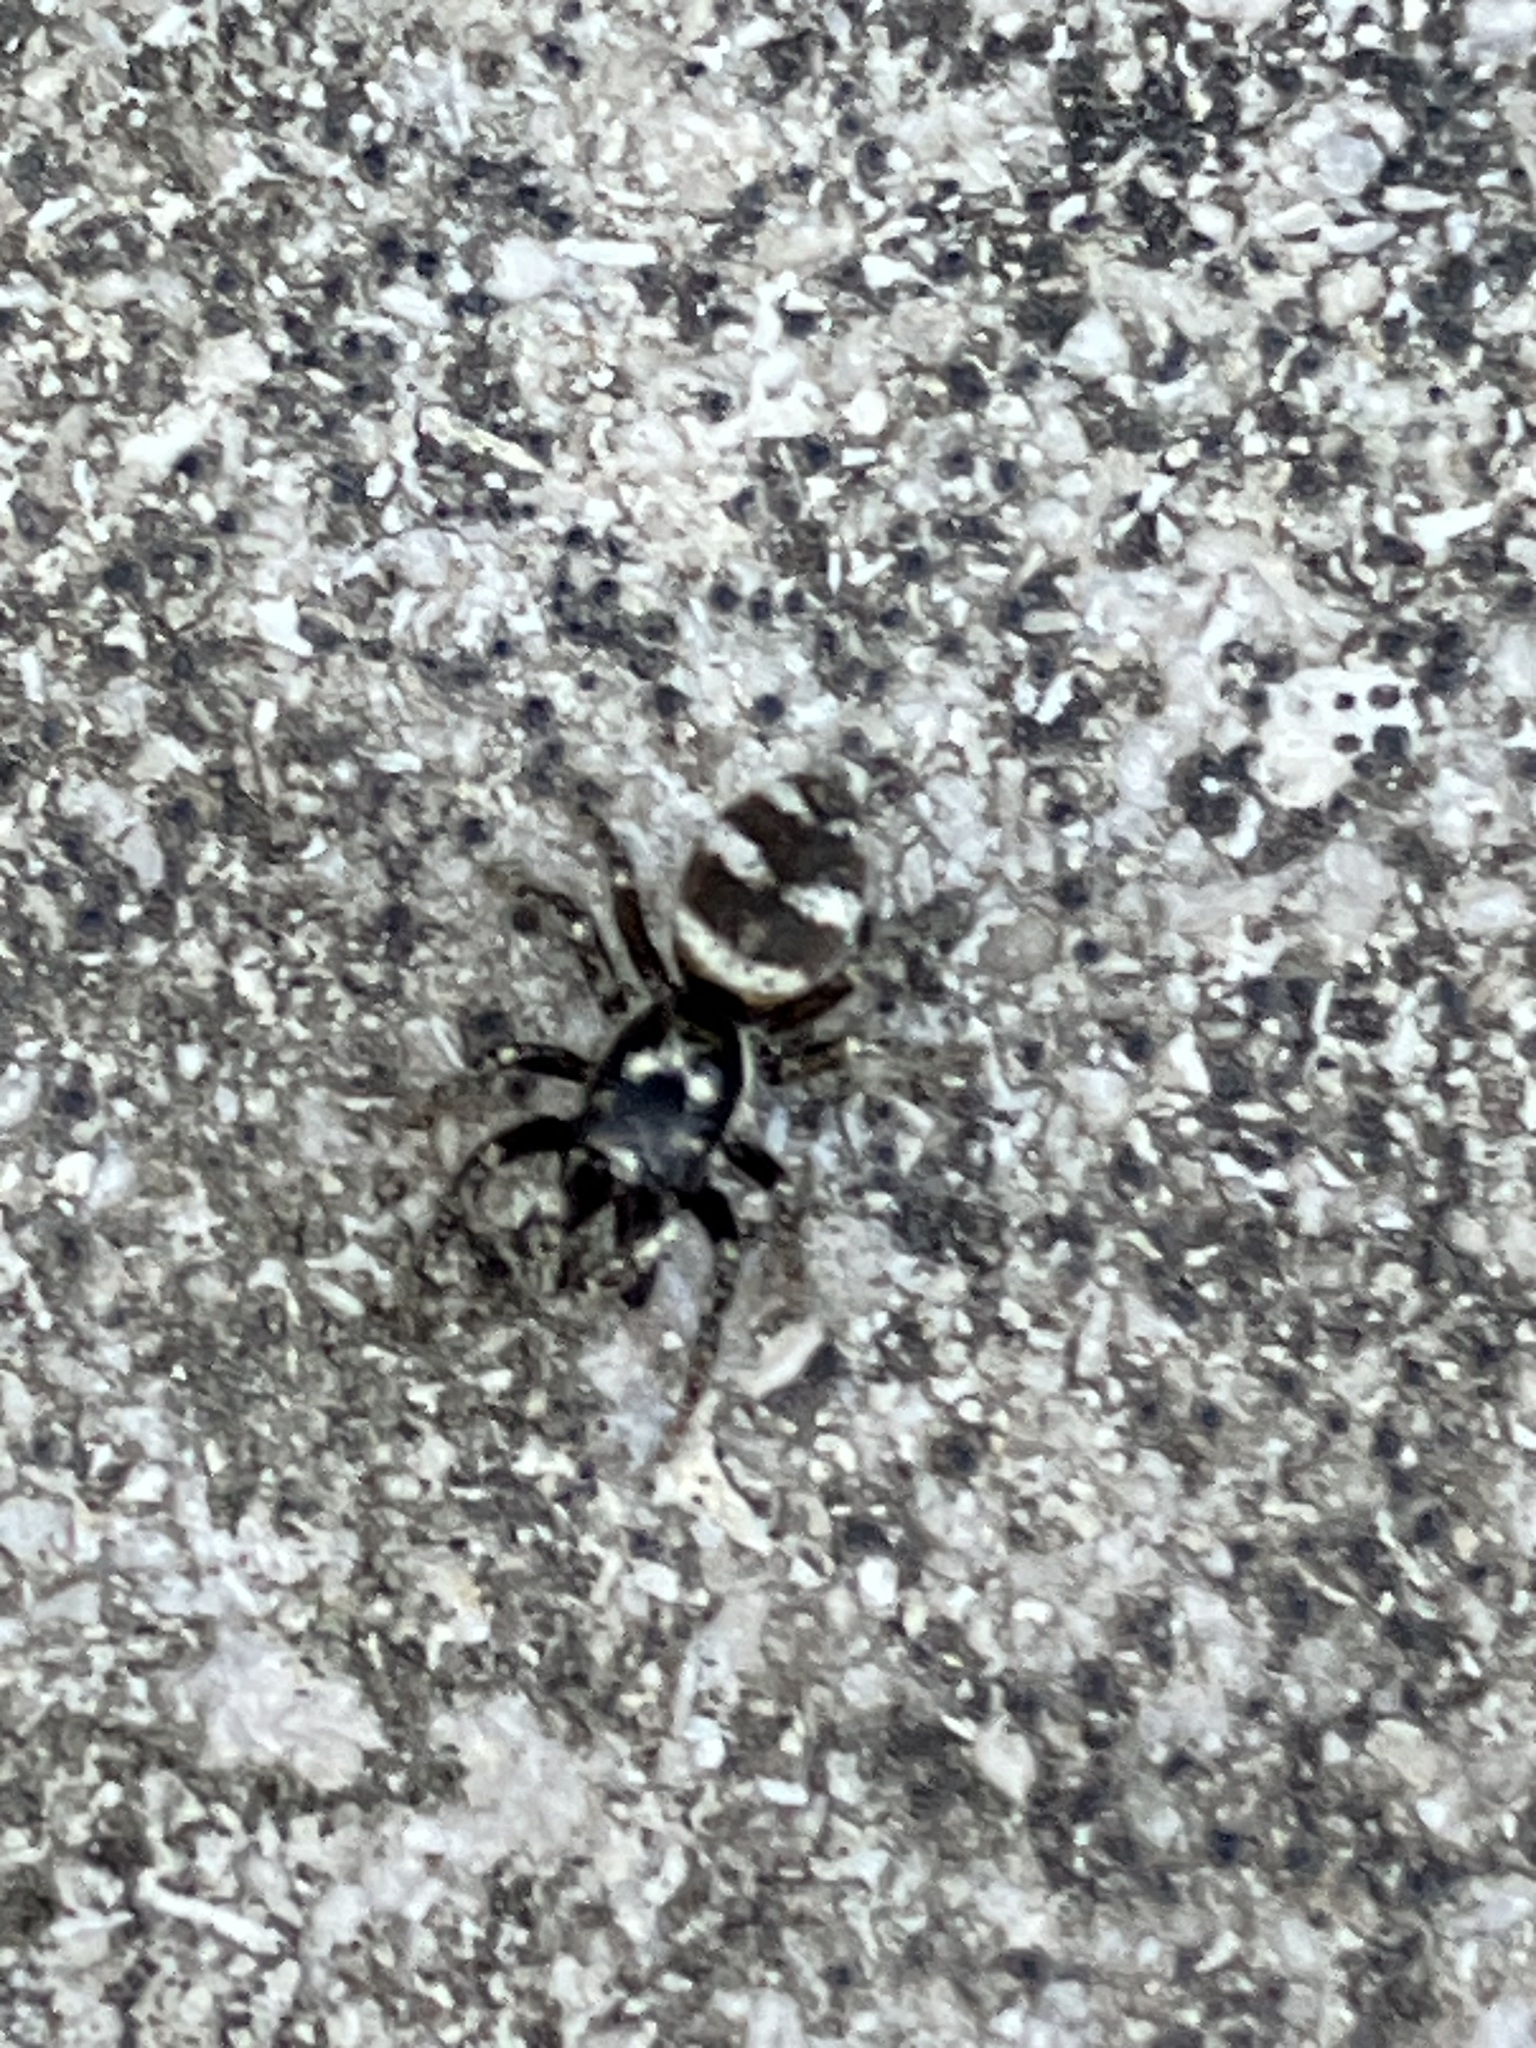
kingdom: Animalia
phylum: Arthropoda
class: Arachnida
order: Araneae
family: Salticidae
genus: Salticus
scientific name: Salticus scenicus
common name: Zebra jumper
